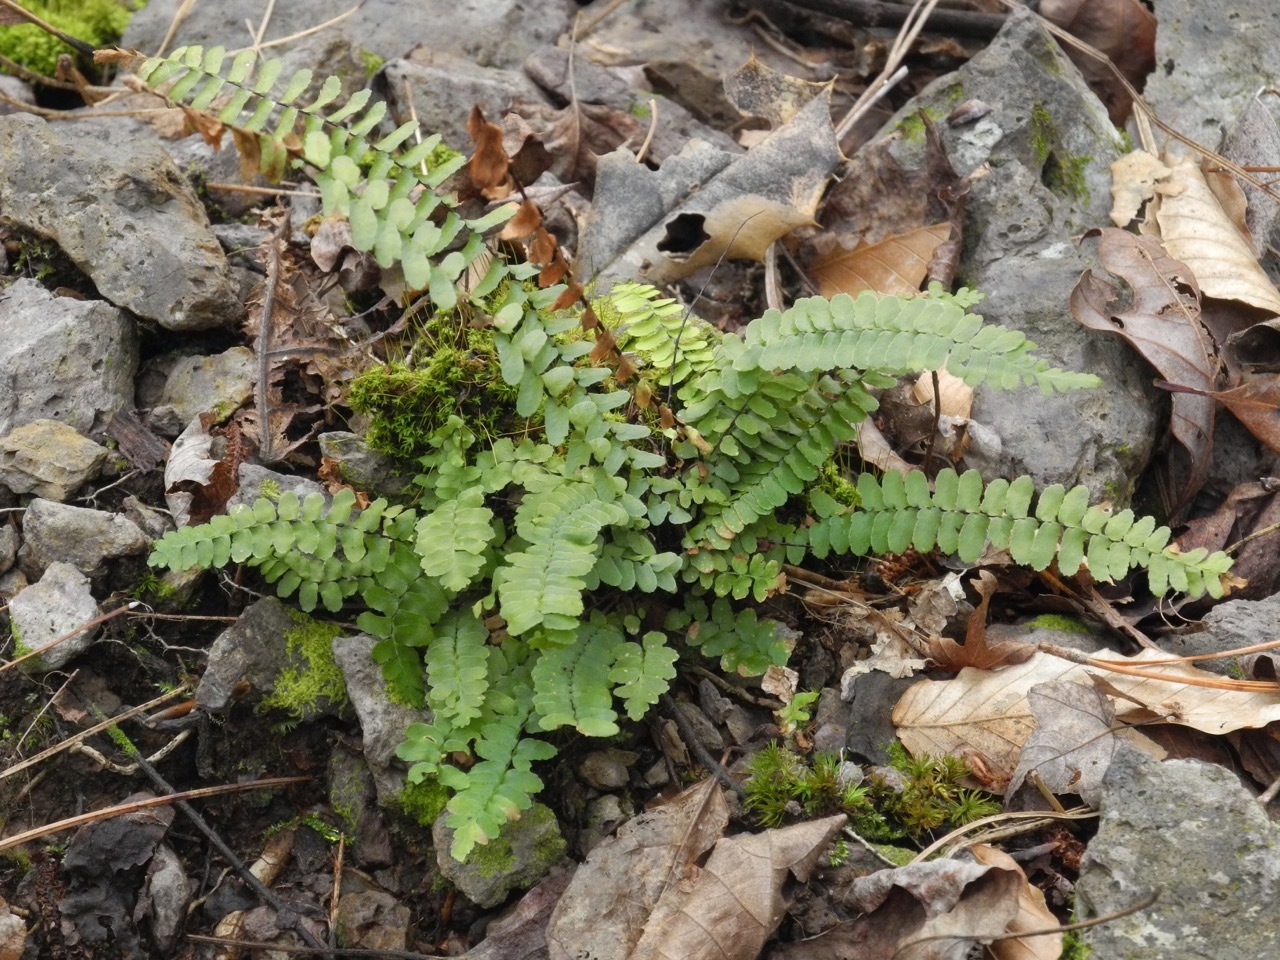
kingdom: Plantae
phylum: Tracheophyta
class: Polypodiopsida
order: Polypodiales
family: Aspleniaceae
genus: Asplenium
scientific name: Asplenium platyneuron
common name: Ebony spleenwort
